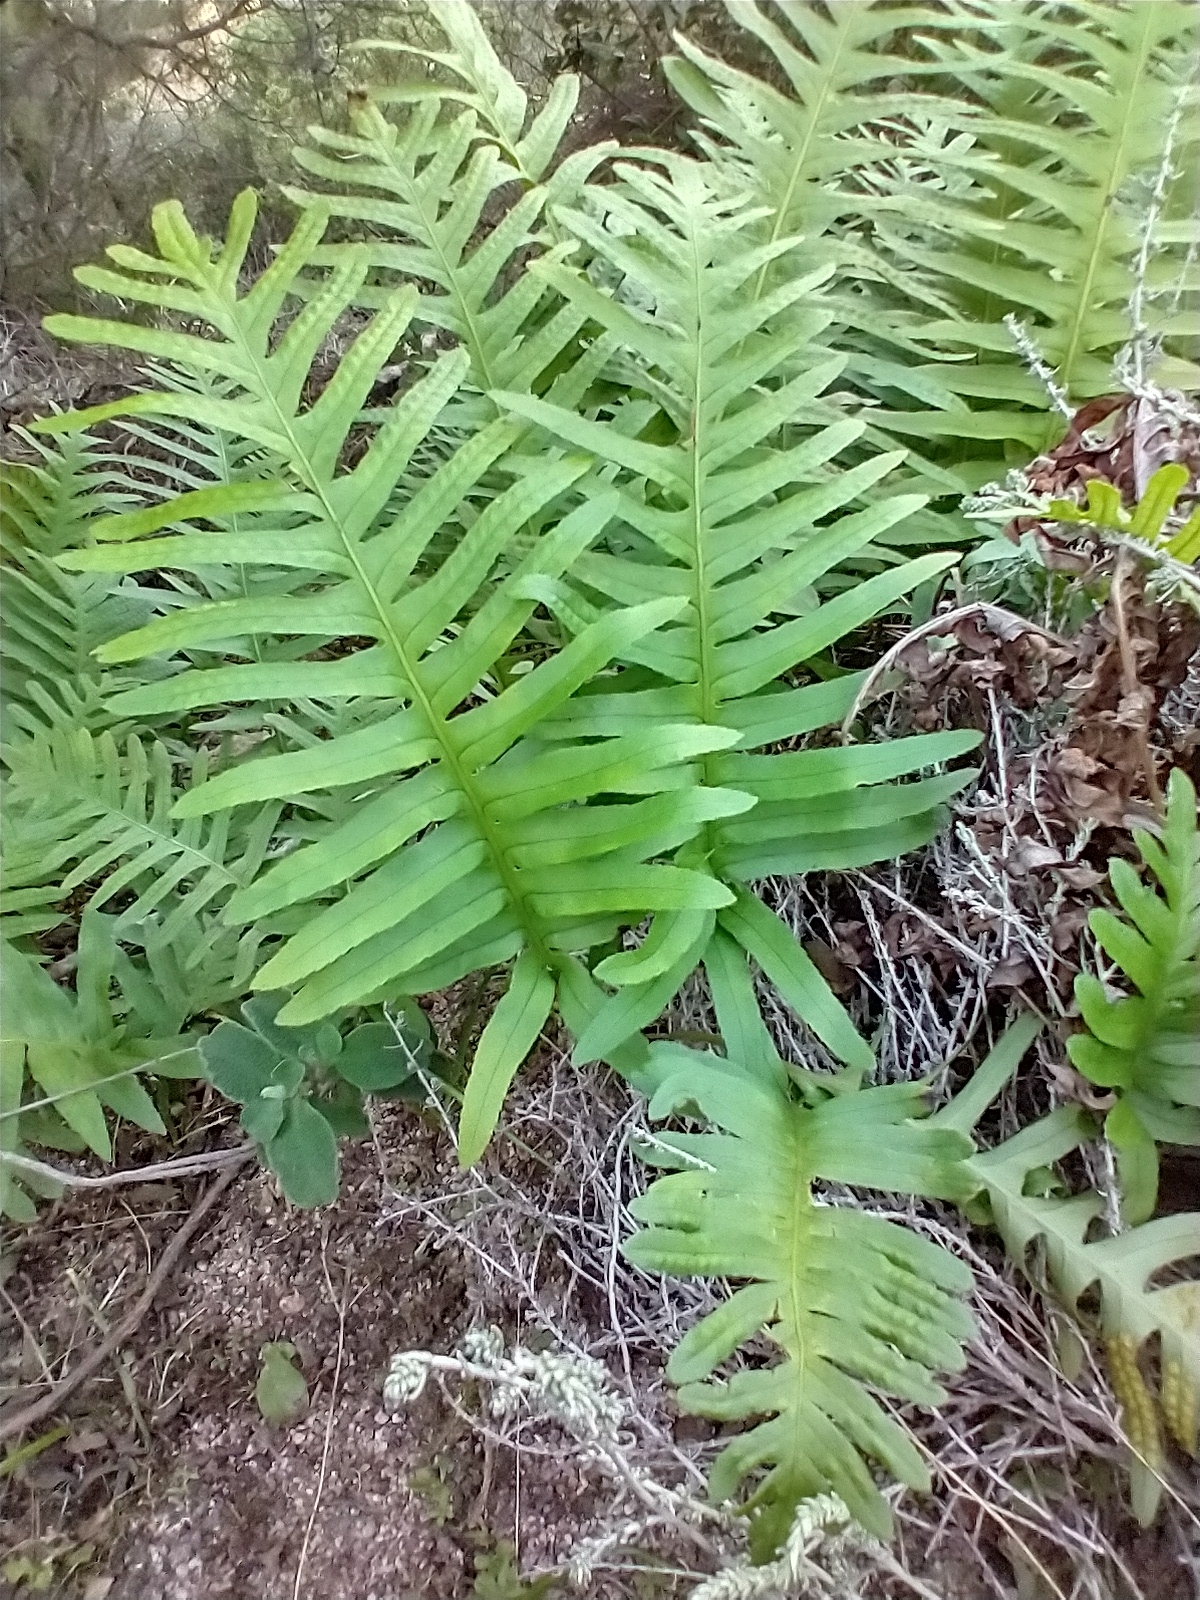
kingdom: Plantae
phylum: Tracheophyta
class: Polypodiopsida
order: Polypodiales
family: Polypodiaceae
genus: Polypodium
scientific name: Polypodium cambricum
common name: Southern polypody
